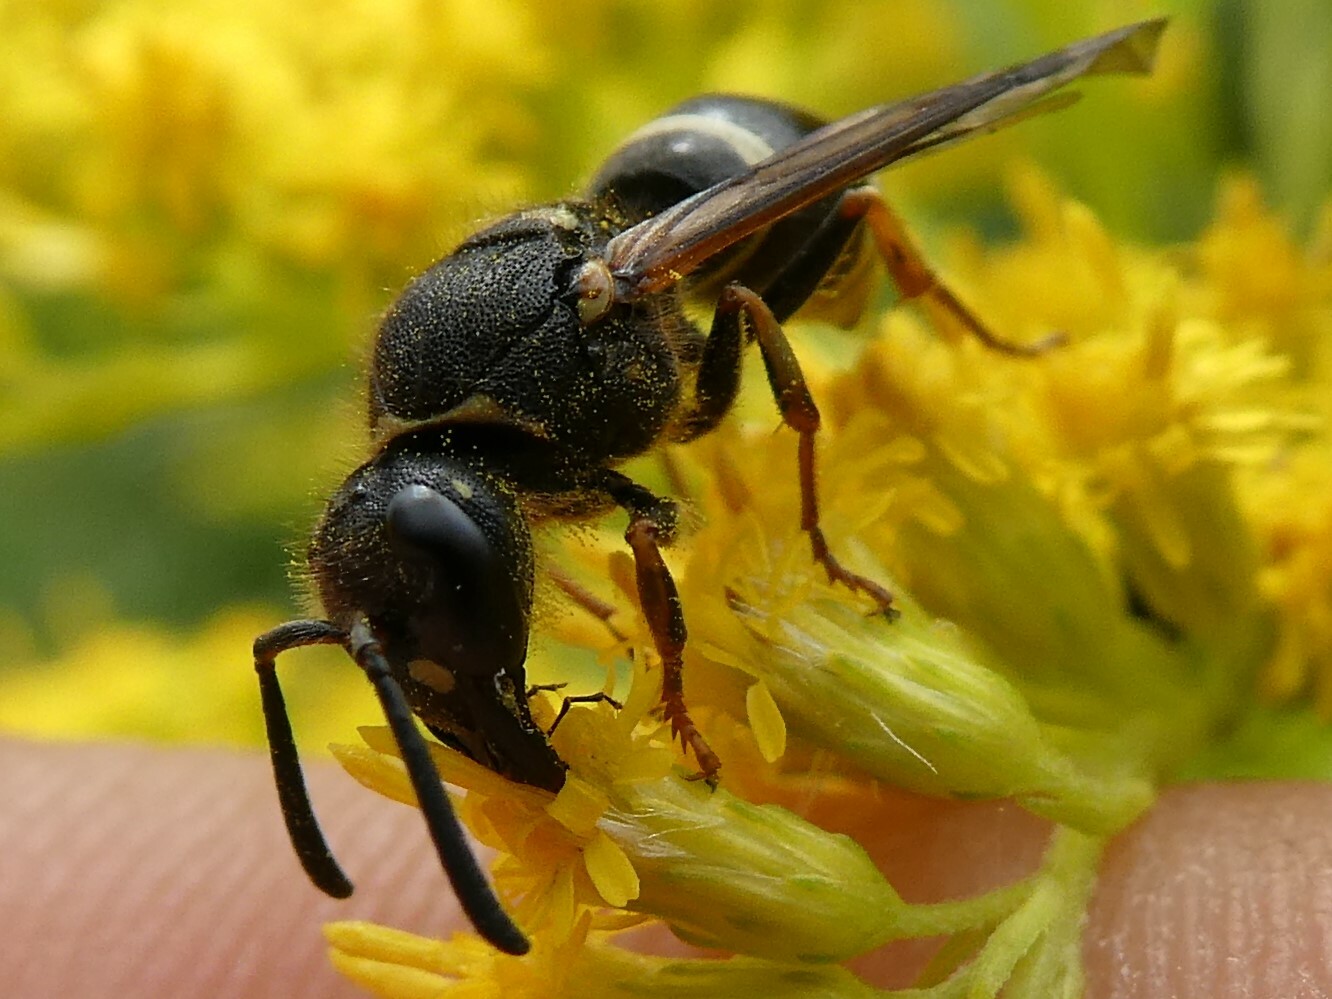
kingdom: Animalia
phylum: Arthropoda
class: Insecta
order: Hymenoptera
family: Vespidae
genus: Ancistrocerus
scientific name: Ancistrocerus
